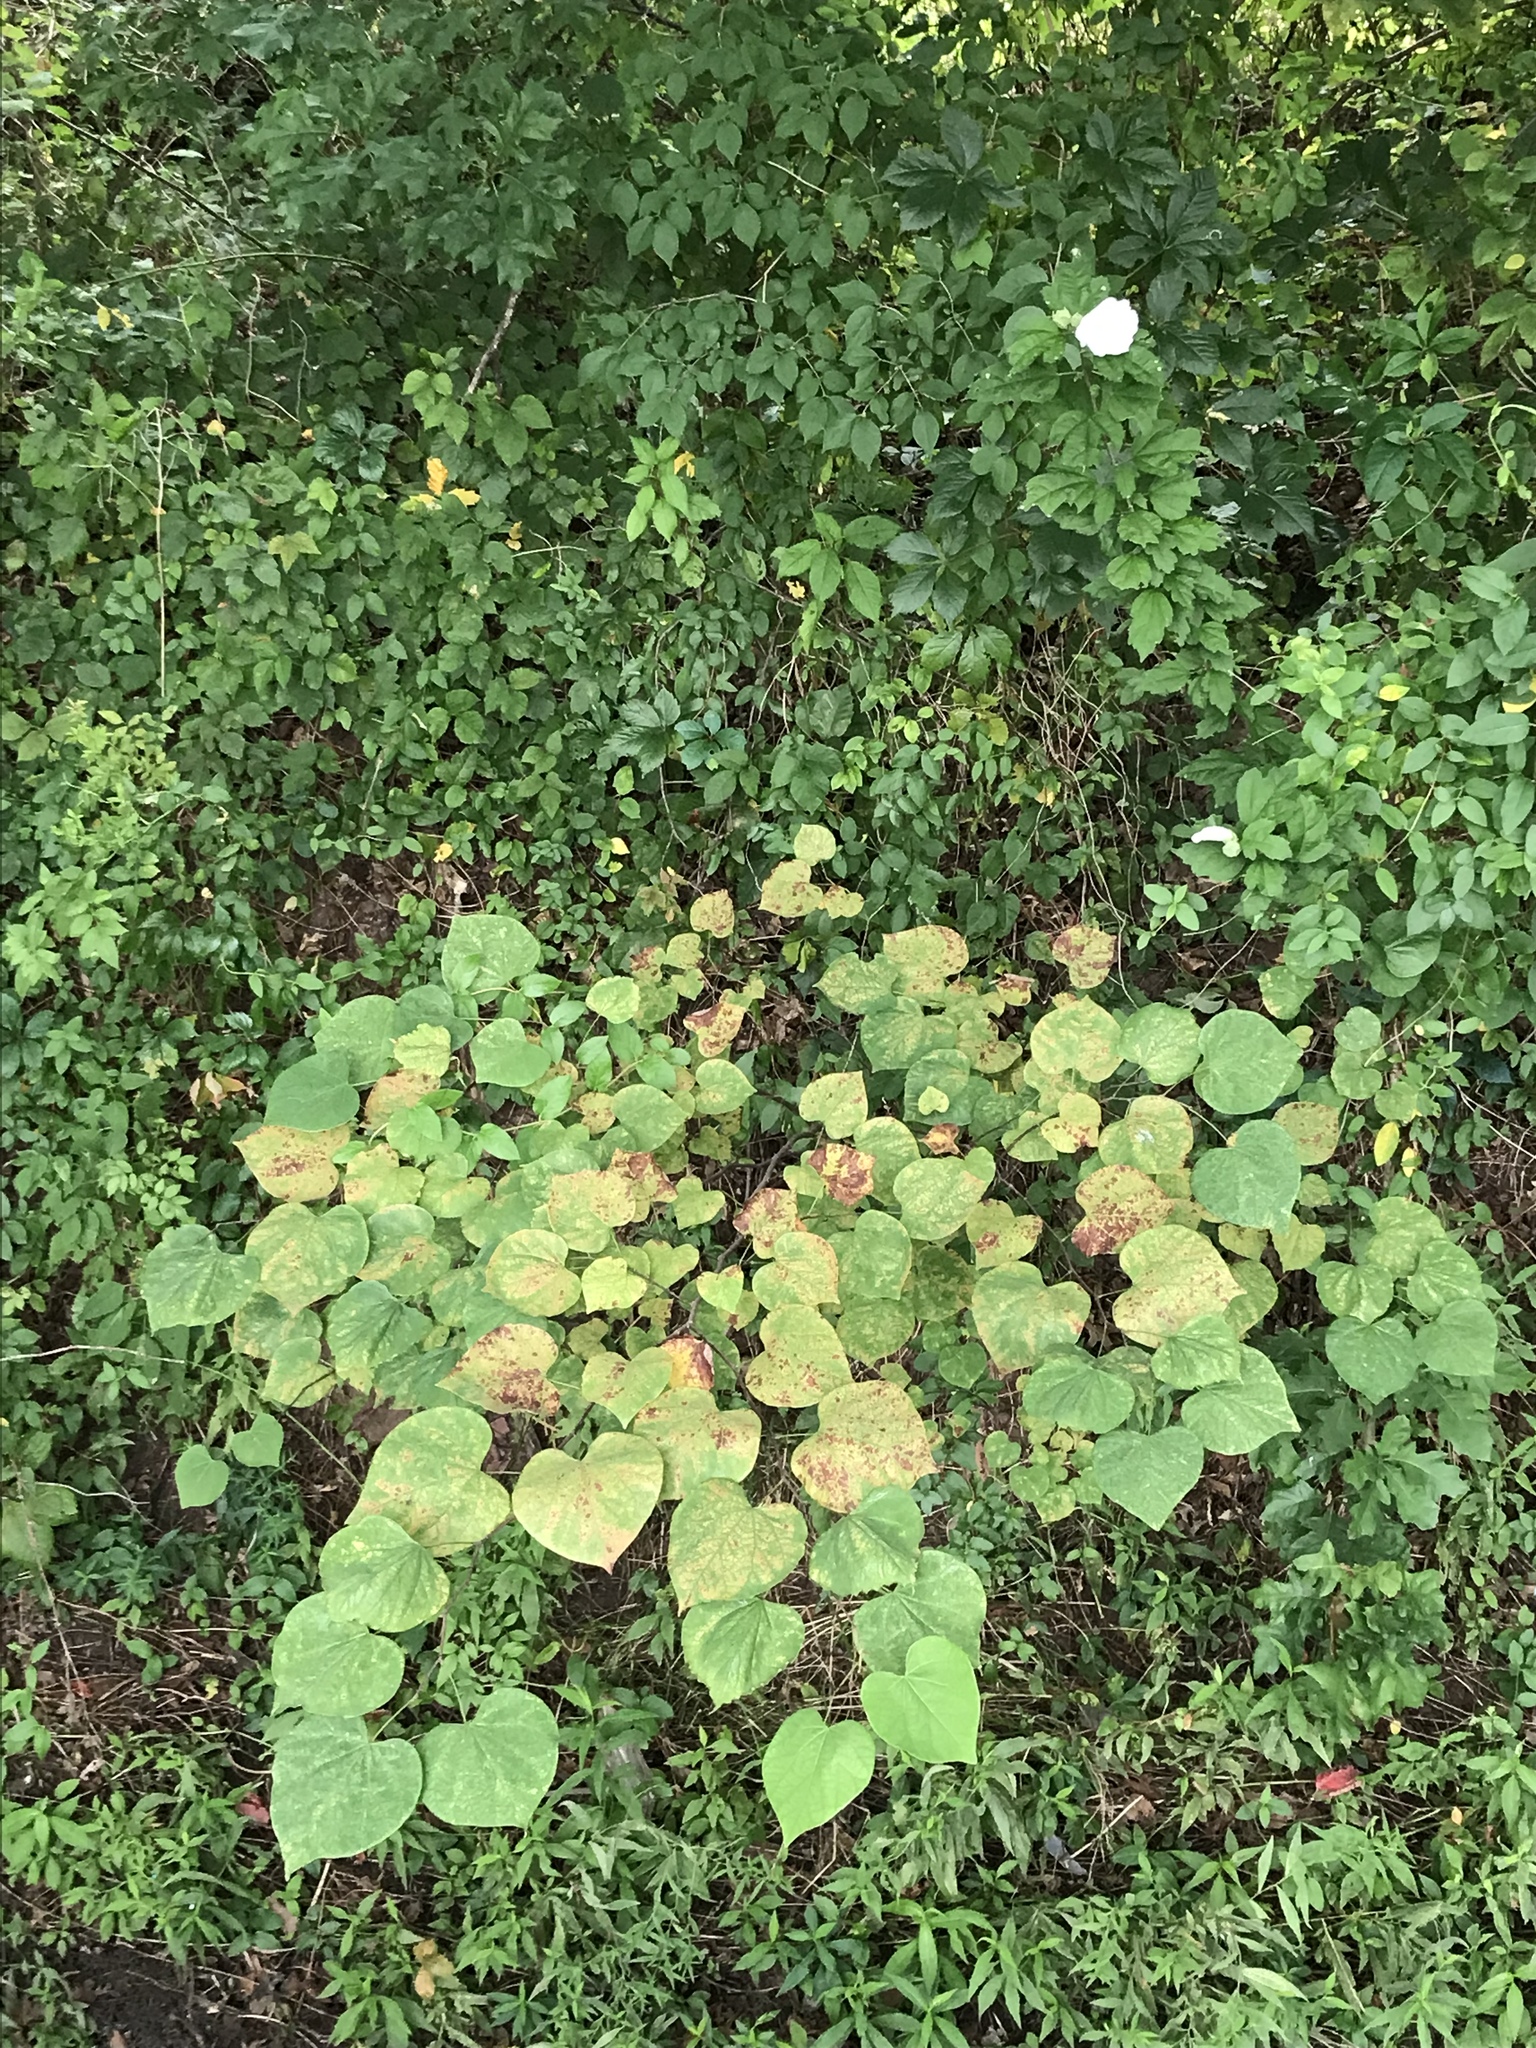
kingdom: Plantae
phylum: Tracheophyta
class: Magnoliopsida
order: Fabales
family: Fabaceae
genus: Cercis
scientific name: Cercis canadensis
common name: Eastern redbud
